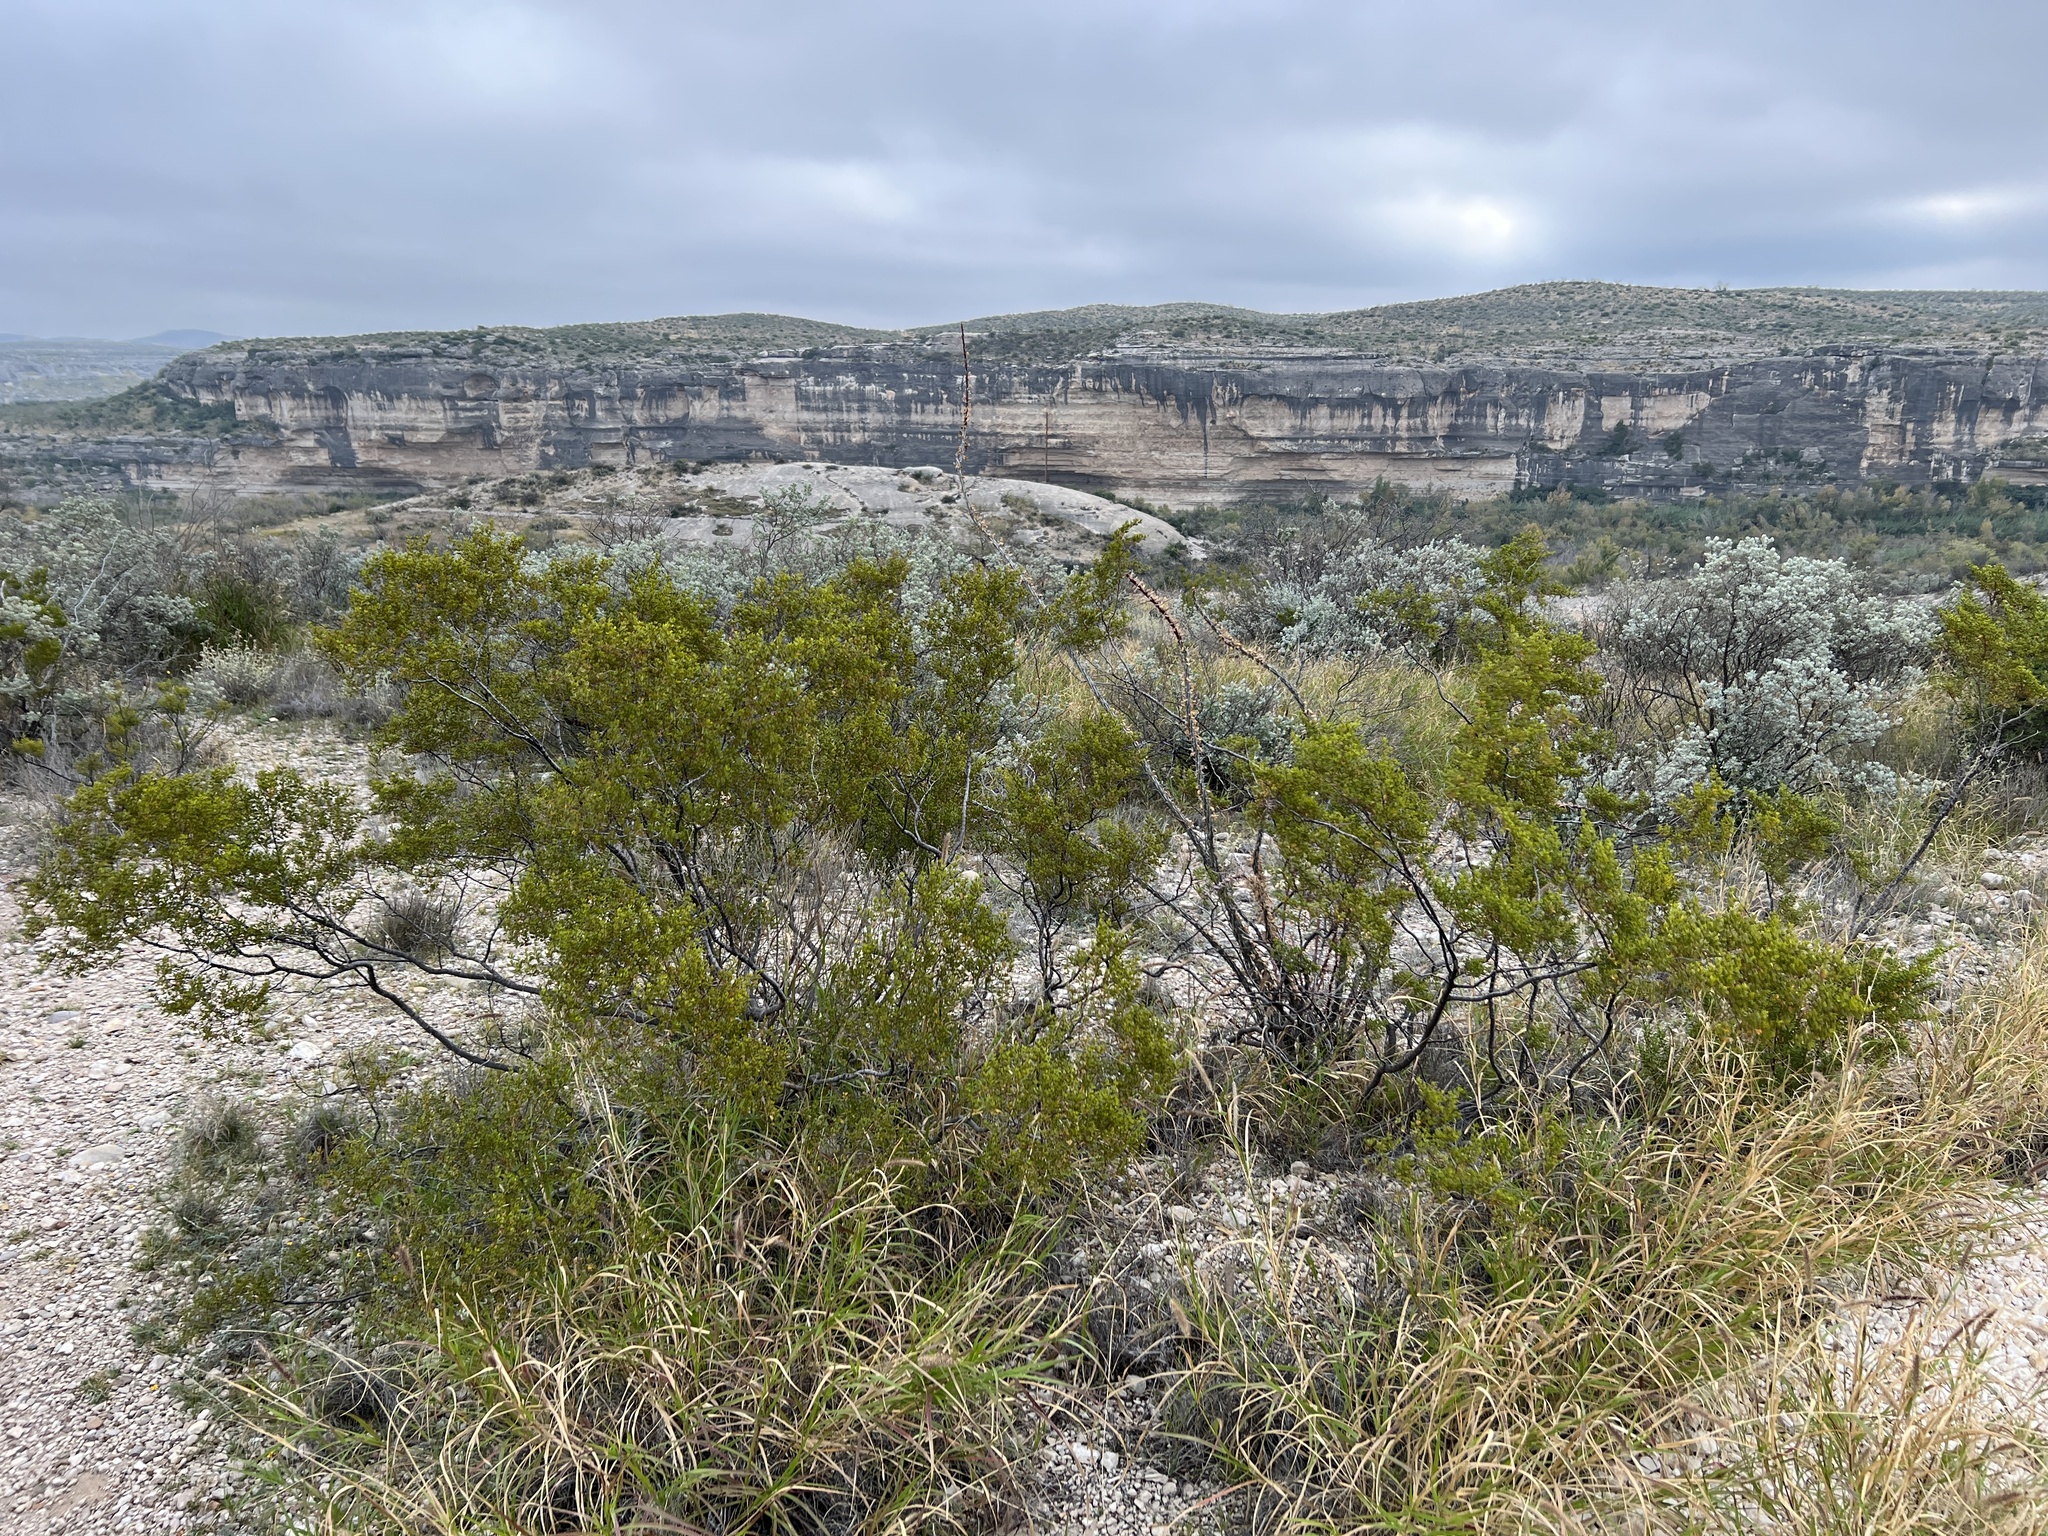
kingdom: Plantae
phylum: Tracheophyta
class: Magnoliopsida
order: Zygophyllales
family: Zygophyllaceae
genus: Larrea
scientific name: Larrea tridentata
